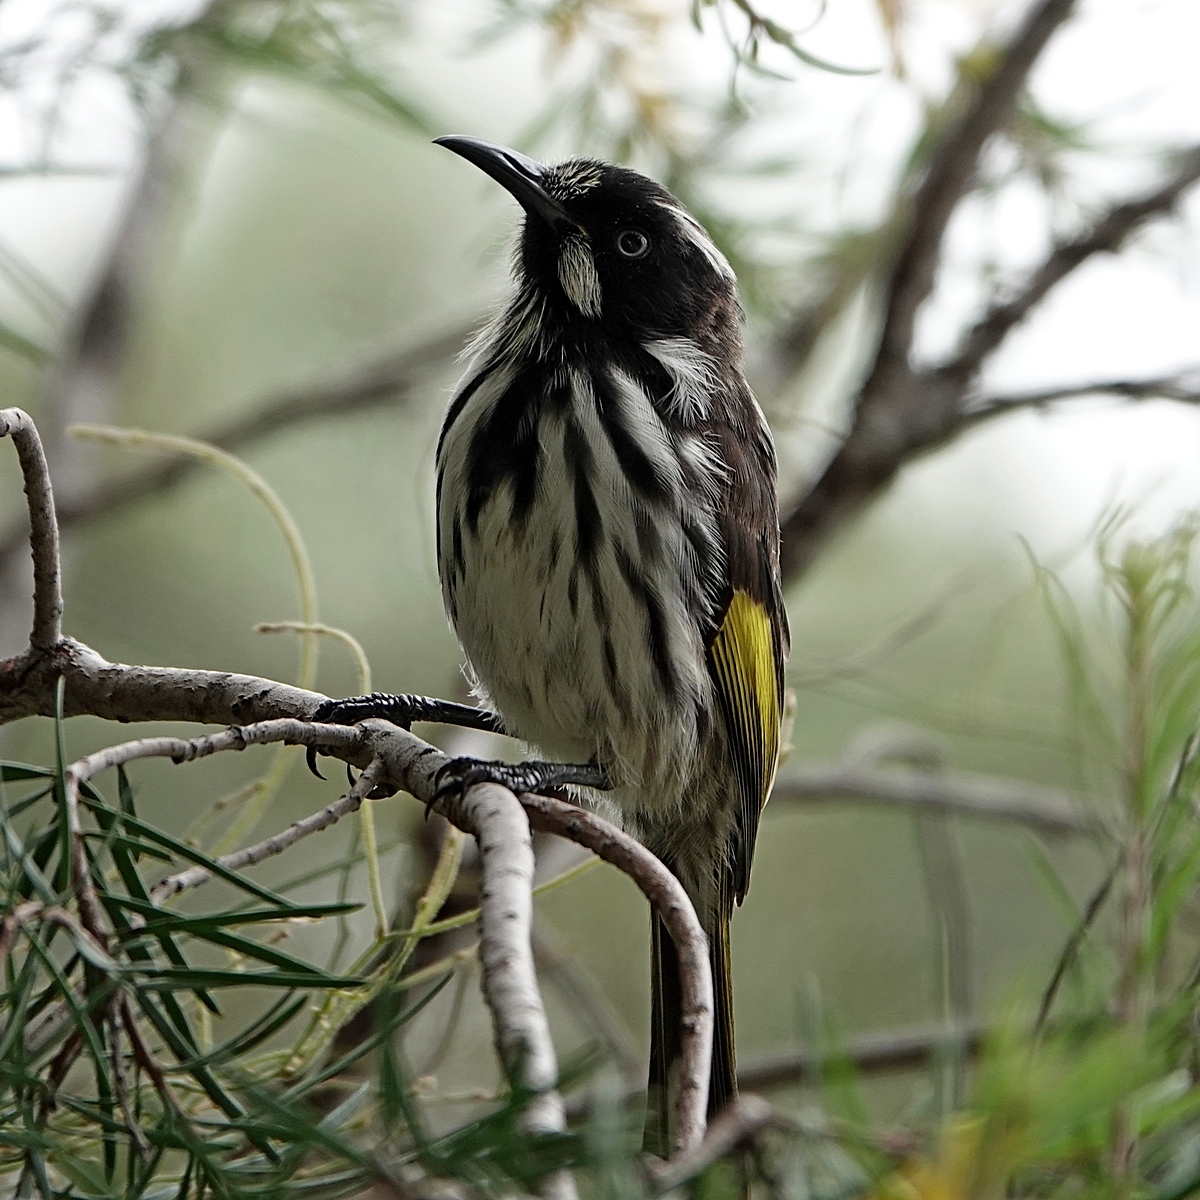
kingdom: Animalia
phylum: Chordata
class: Aves
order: Passeriformes
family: Meliphagidae
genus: Phylidonyris
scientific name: Phylidonyris novaehollandiae
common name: New holland honeyeater
